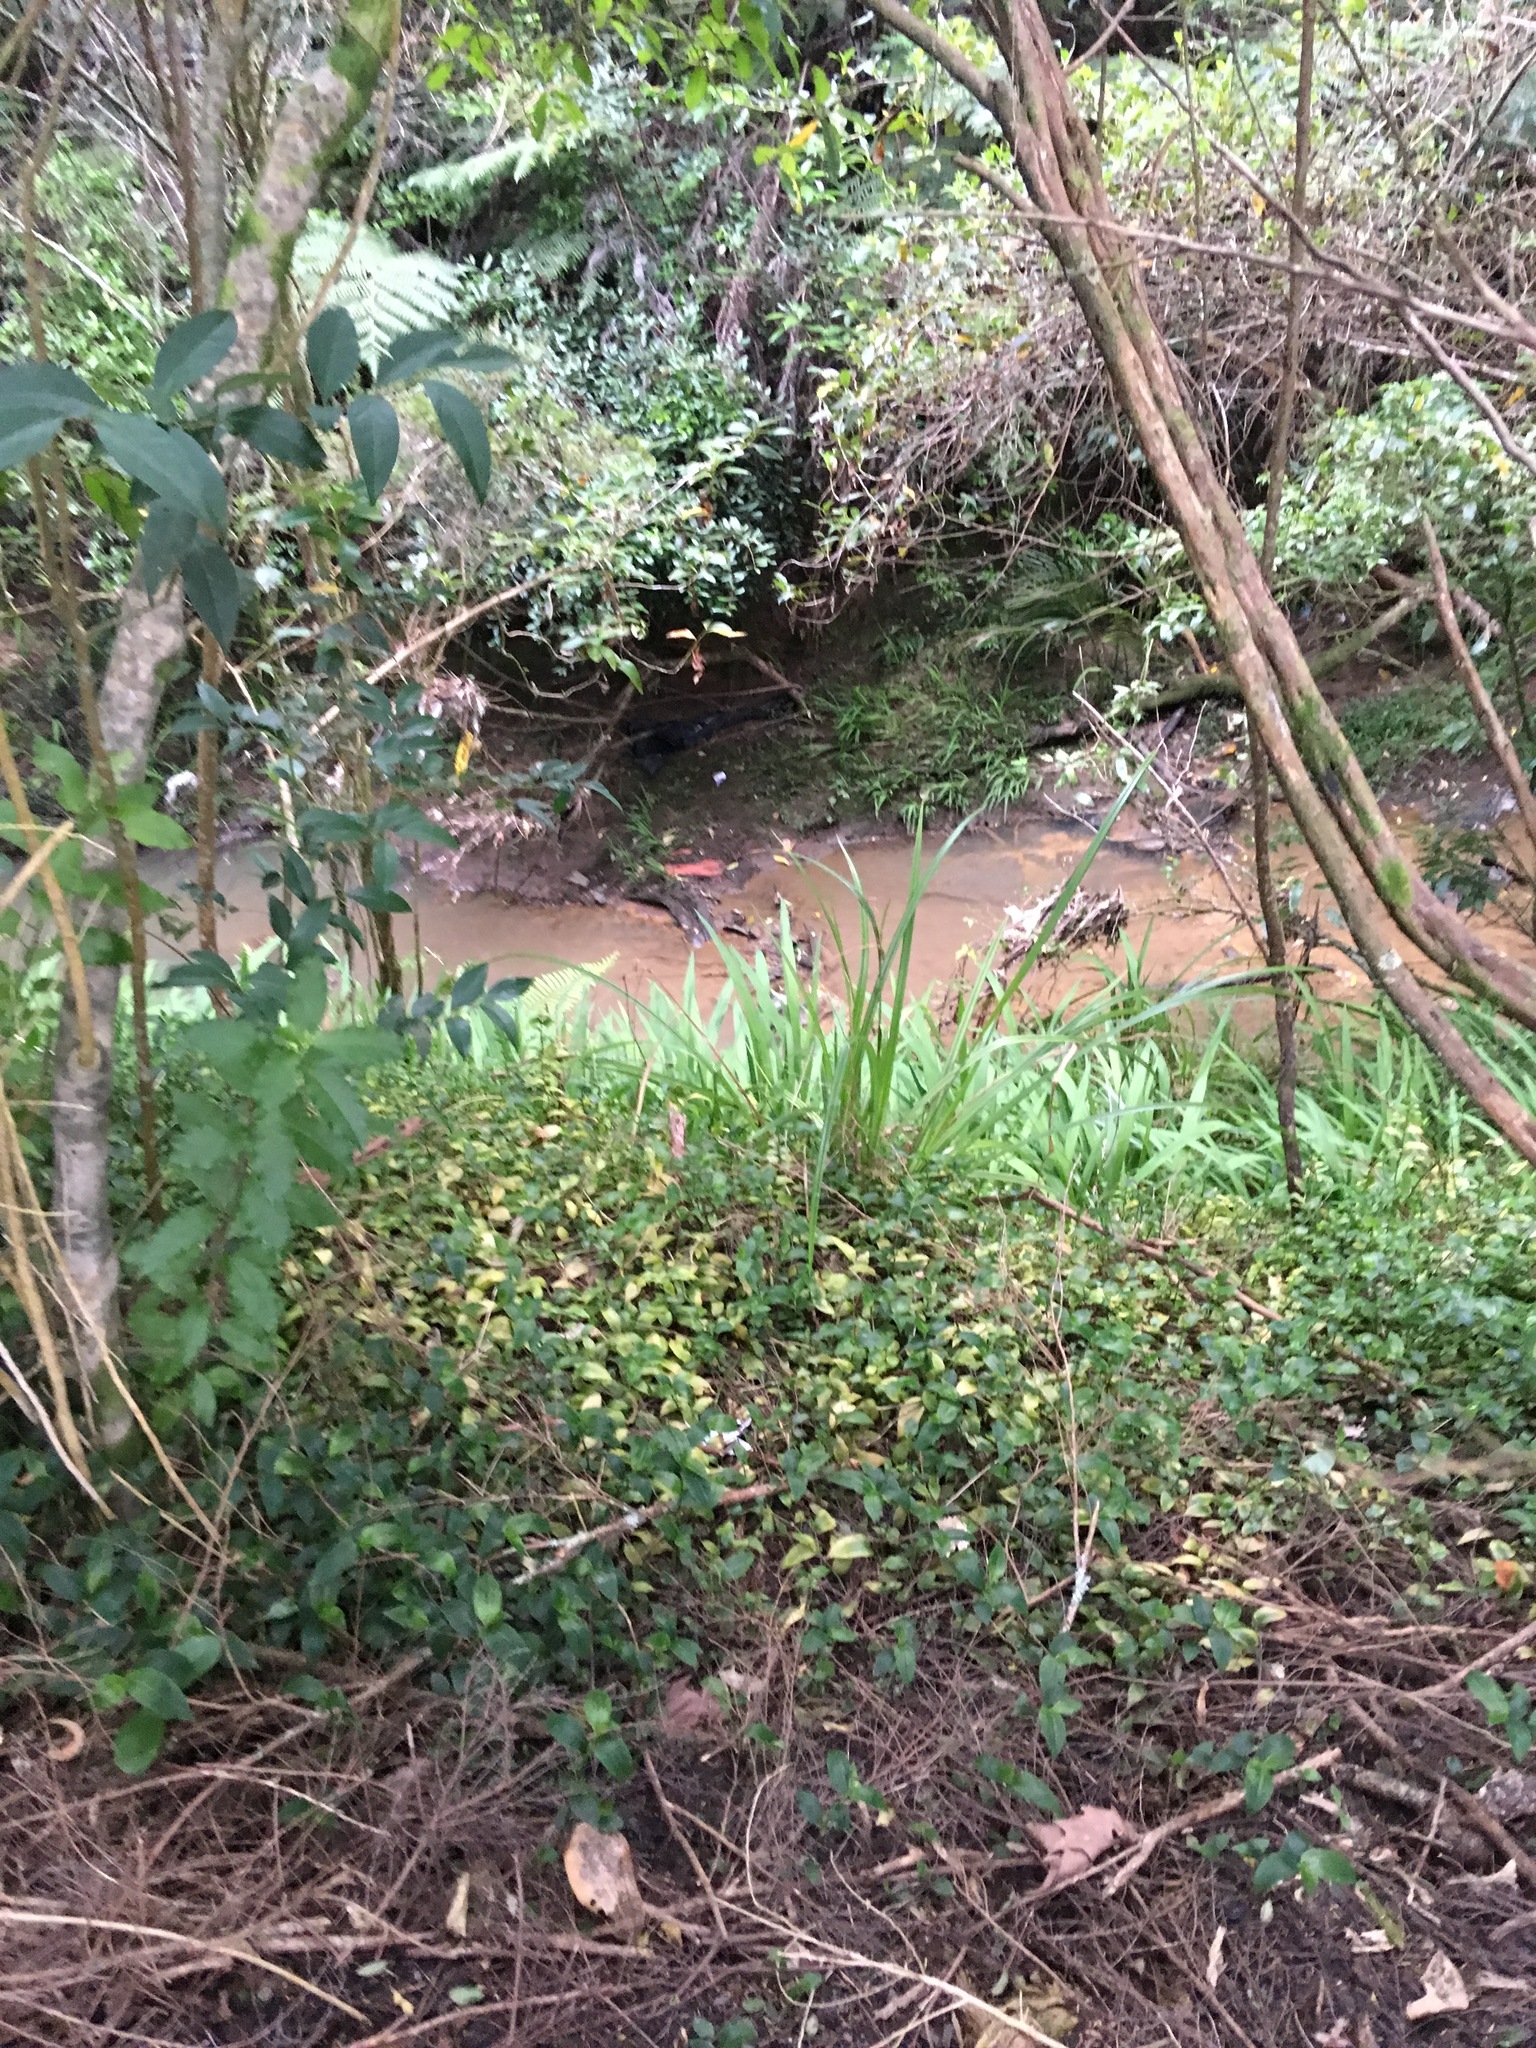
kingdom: Plantae
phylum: Tracheophyta
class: Magnoliopsida
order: Lamiales
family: Oleaceae
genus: Ligustrum
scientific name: Ligustrum lucidum
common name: Glossy privet
